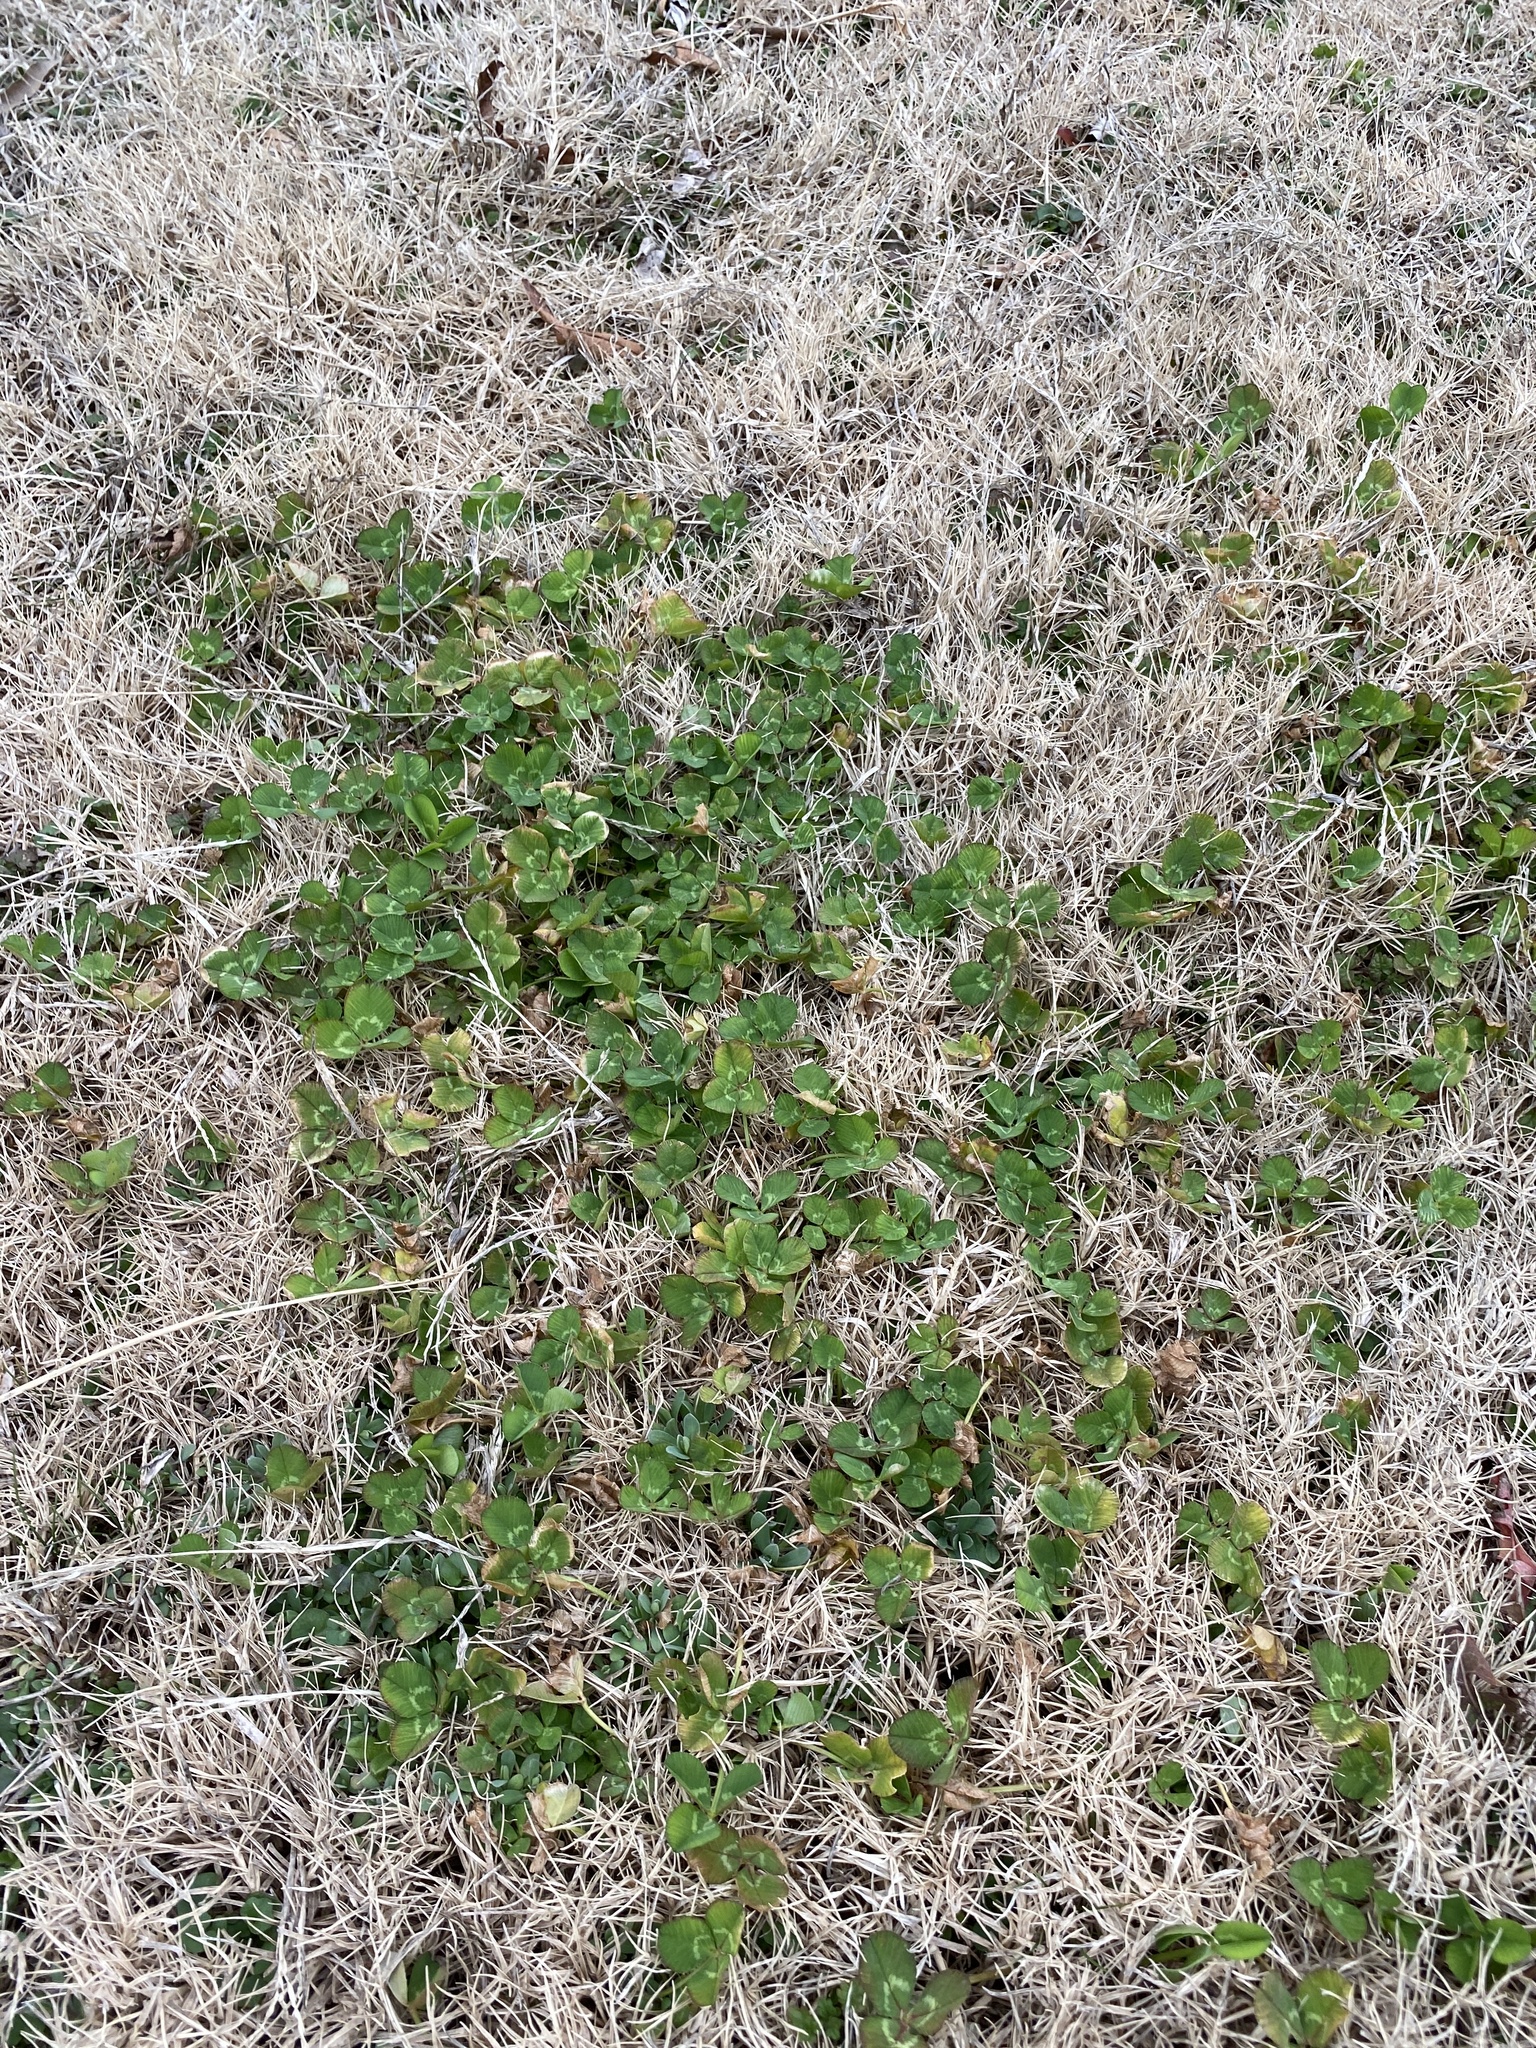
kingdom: Plantae
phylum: Tracheophyta
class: Magnoliopsida
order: Fabales
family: Fabaceae
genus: Trifolium
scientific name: Trifolium repens
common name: White clover
